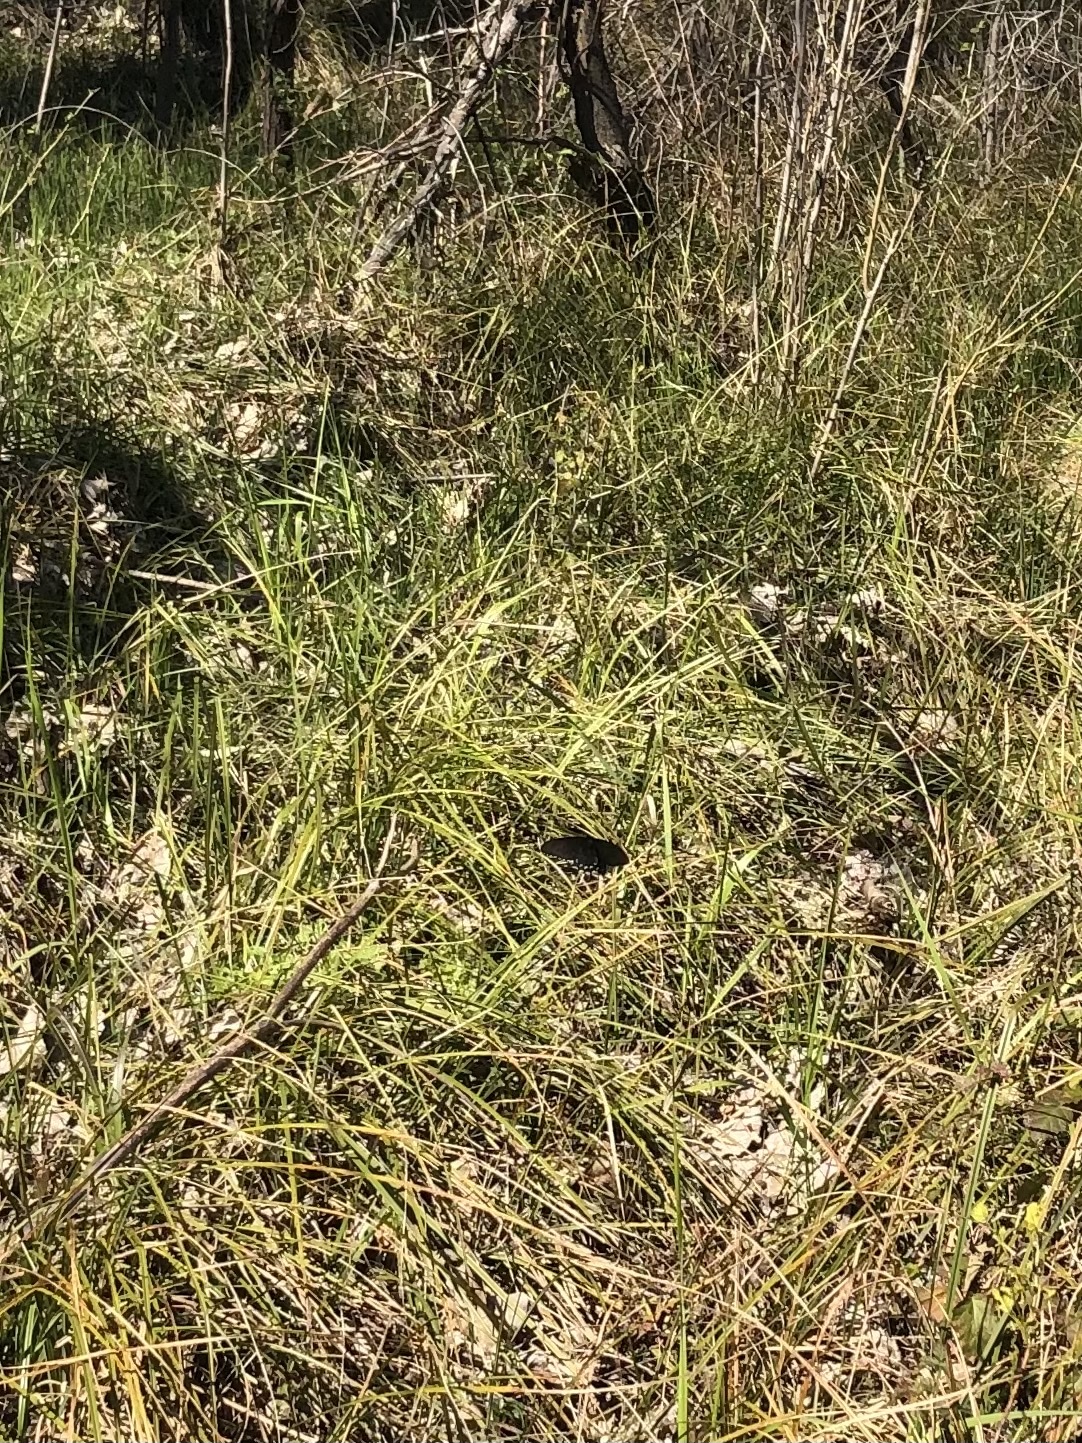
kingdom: Animalia
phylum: Arthropoda
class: Insecta
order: Lepidoptera
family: Papilionidae
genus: Battus
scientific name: Battus philenor
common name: Pipevine swallowtail
